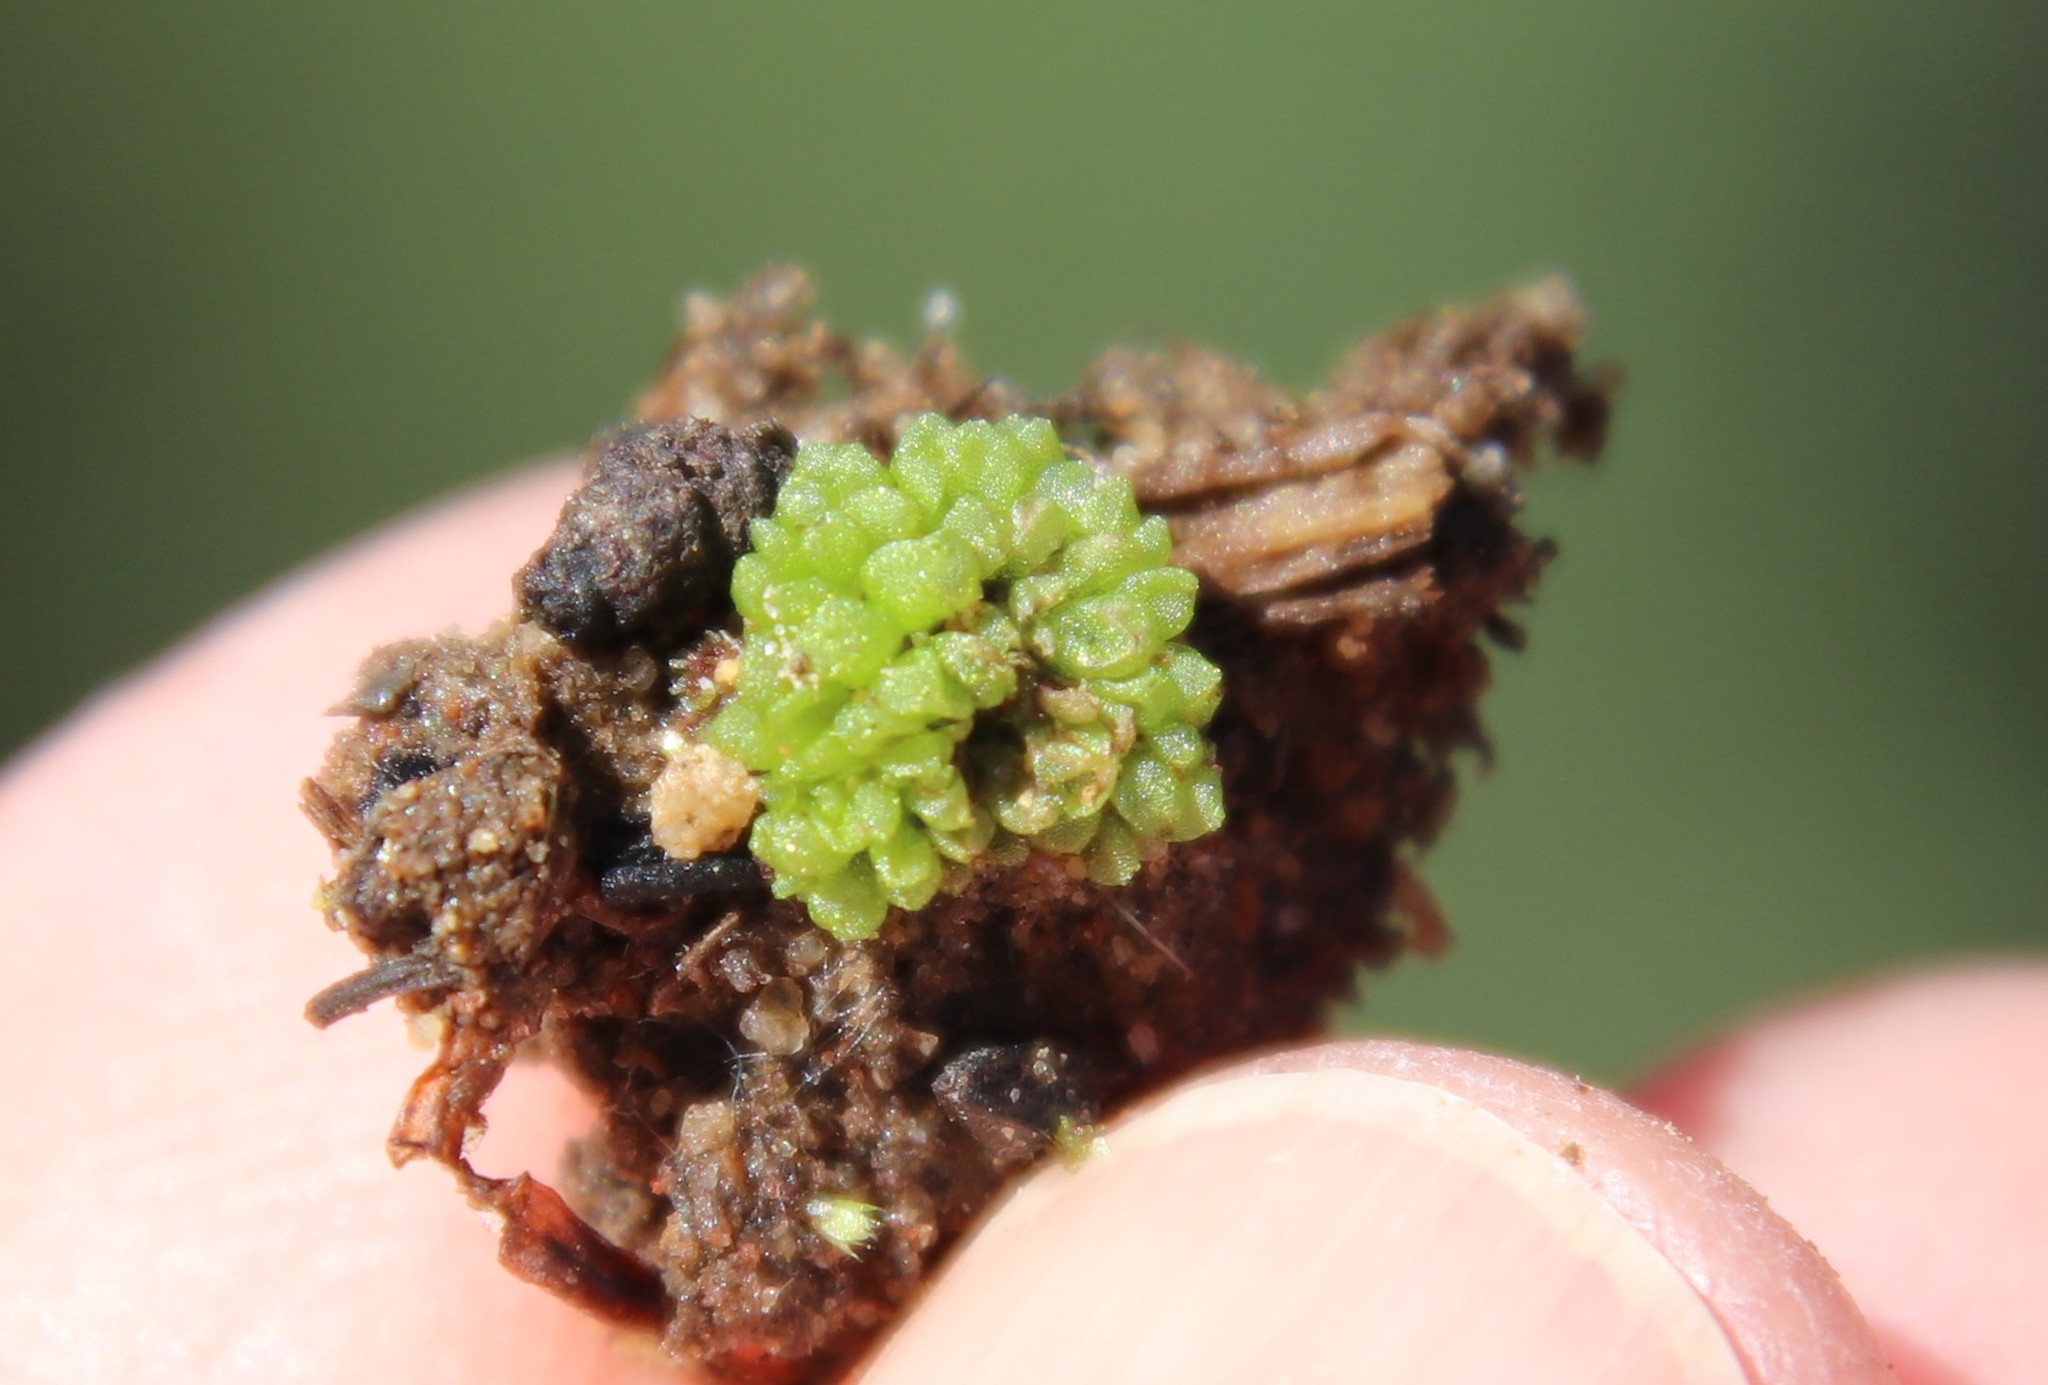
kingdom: Plantae
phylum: Marchantiophyta
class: Marchantiopsida
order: Sphaerocarpales
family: Sphaerocarpaceae
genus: Sphaerocarpos
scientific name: Sphaerocarpos
